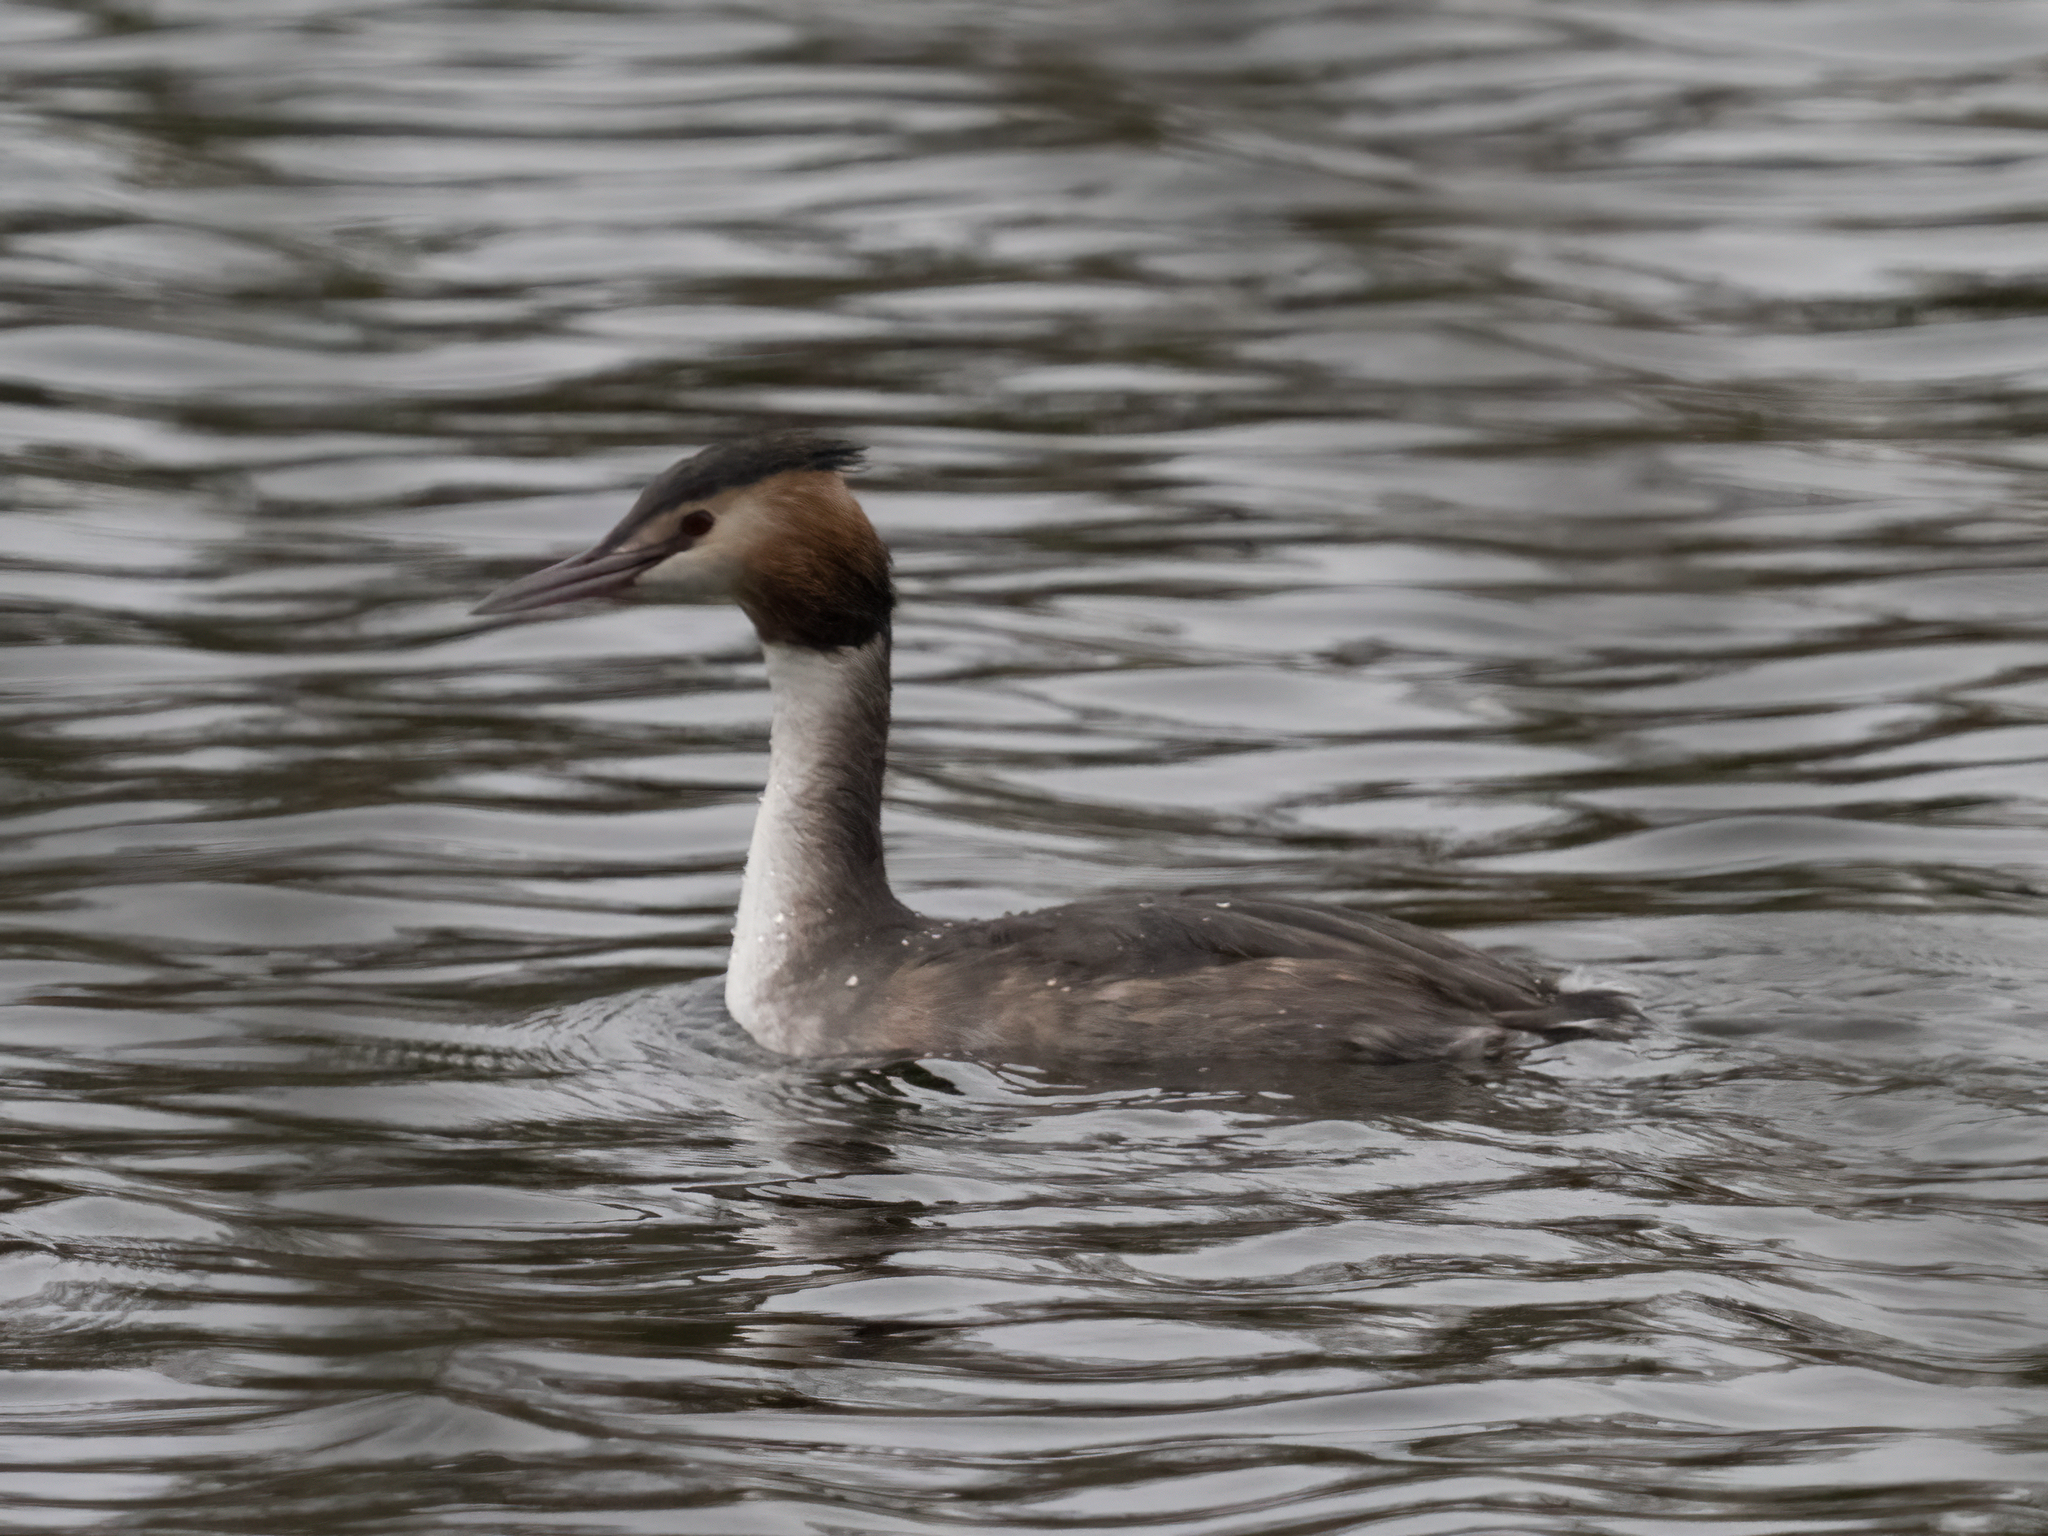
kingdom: Animalia
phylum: Chordata
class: Aves
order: Podicipediformes
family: Podicipedidae
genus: Podiceps
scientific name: Podiceps cristatus
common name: Great crested grebe
